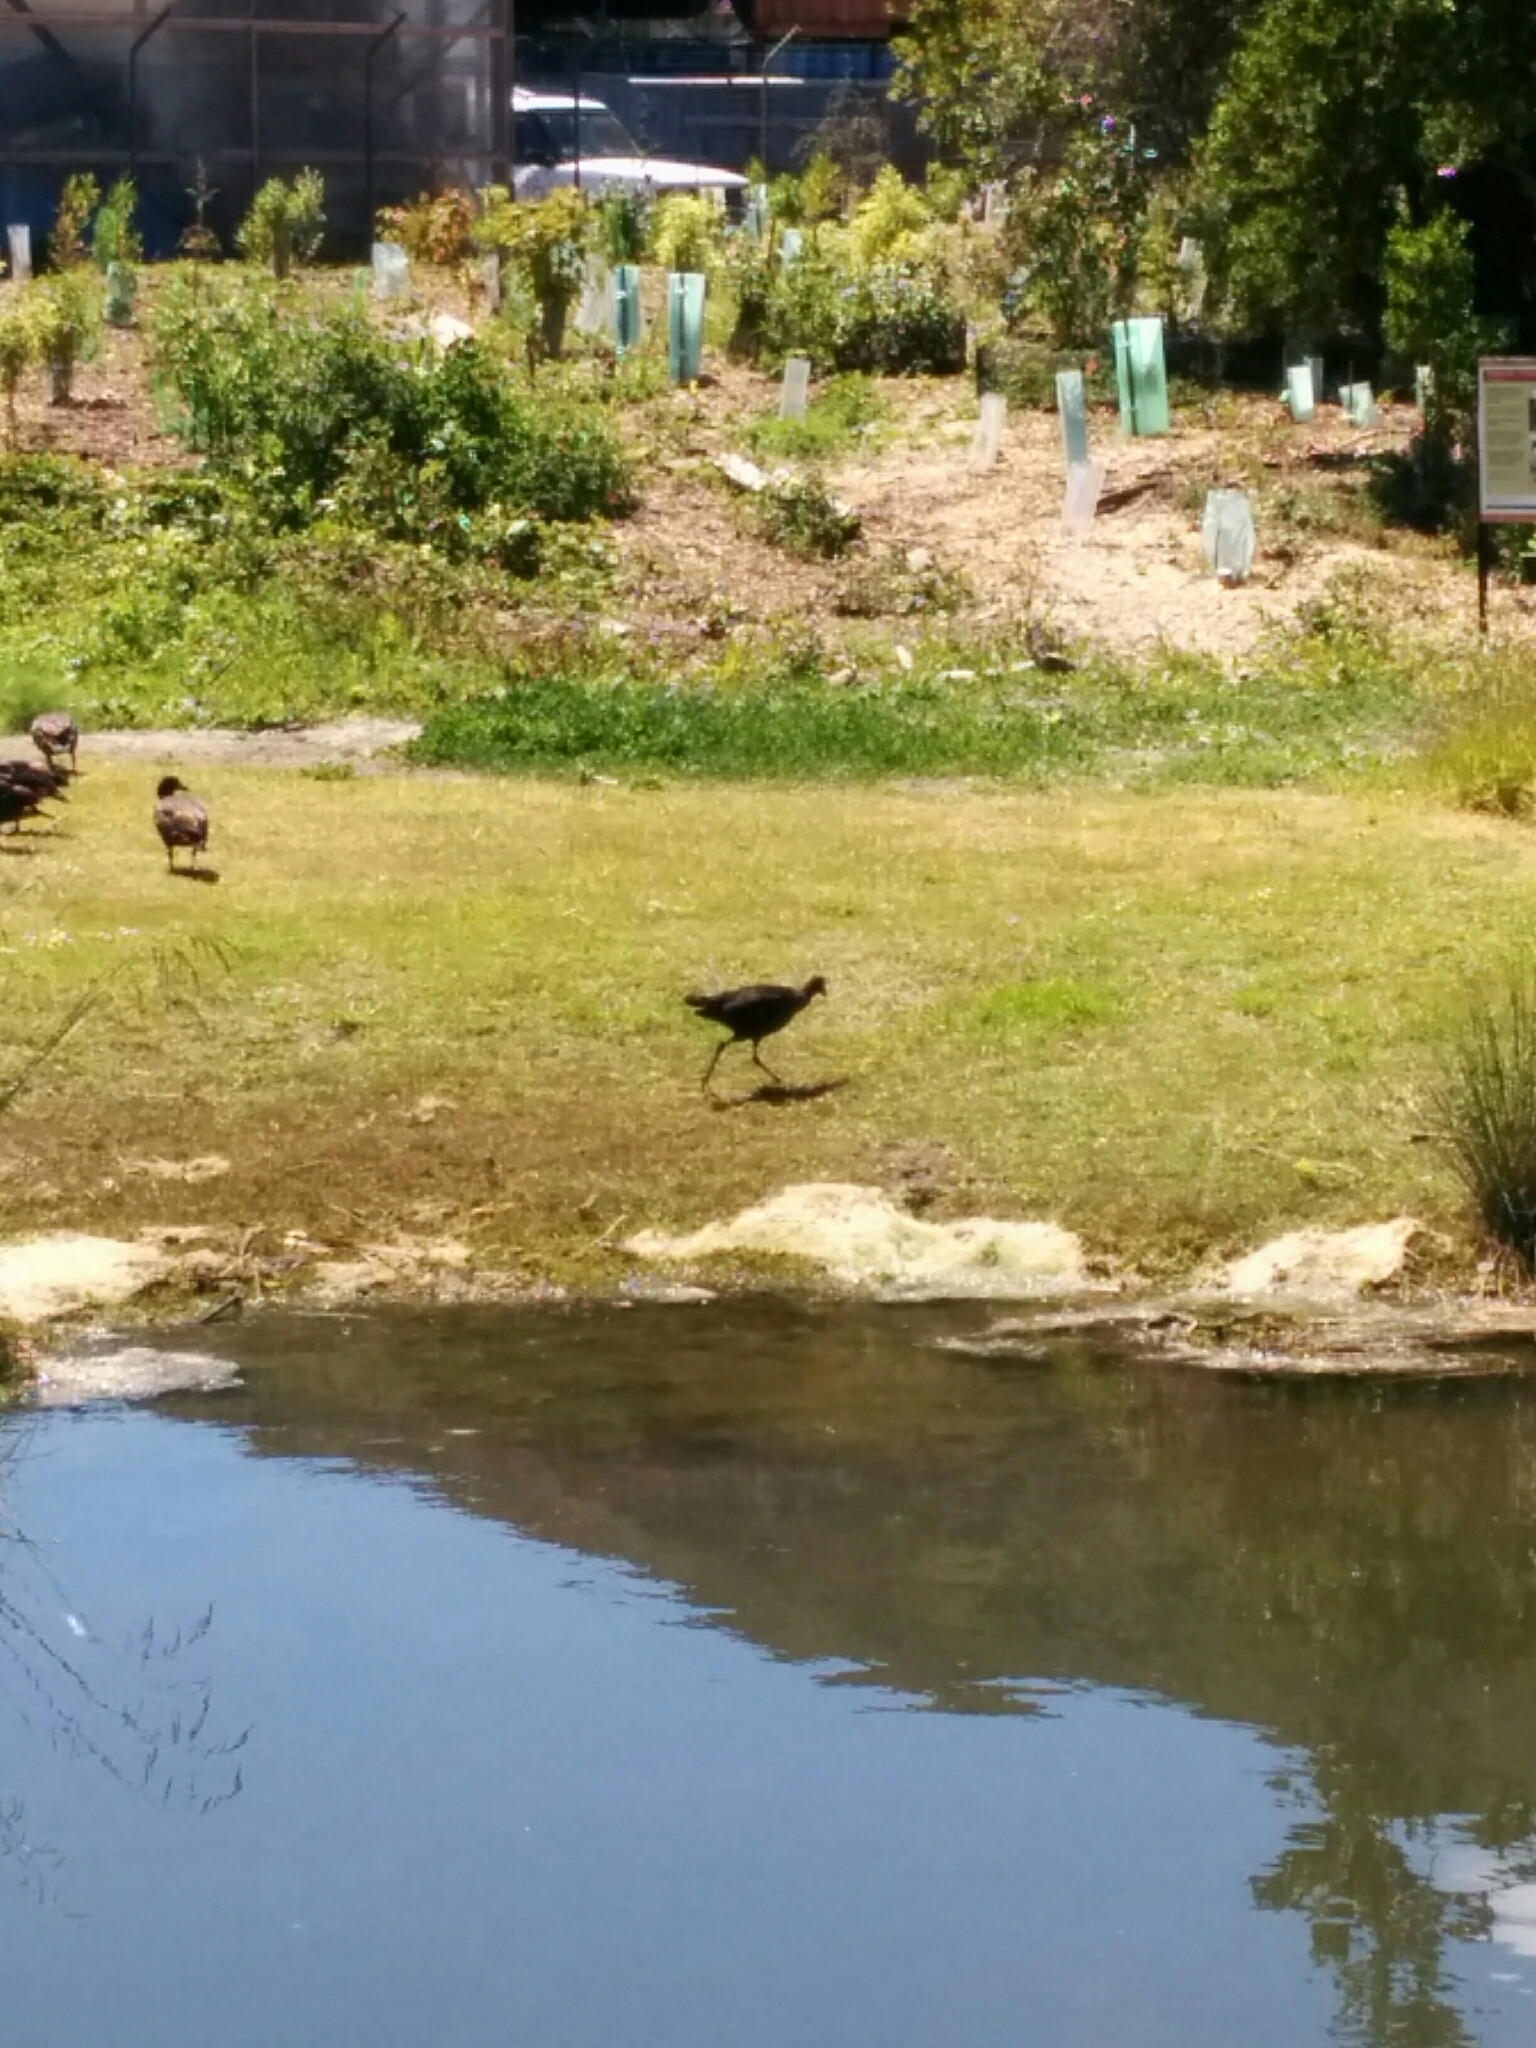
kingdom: Animalia
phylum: Chordata
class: Aves
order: Gruiformes
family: Rallidae
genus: Porphyrio
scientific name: Porphyrio melanotus
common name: Australasian swamphen
